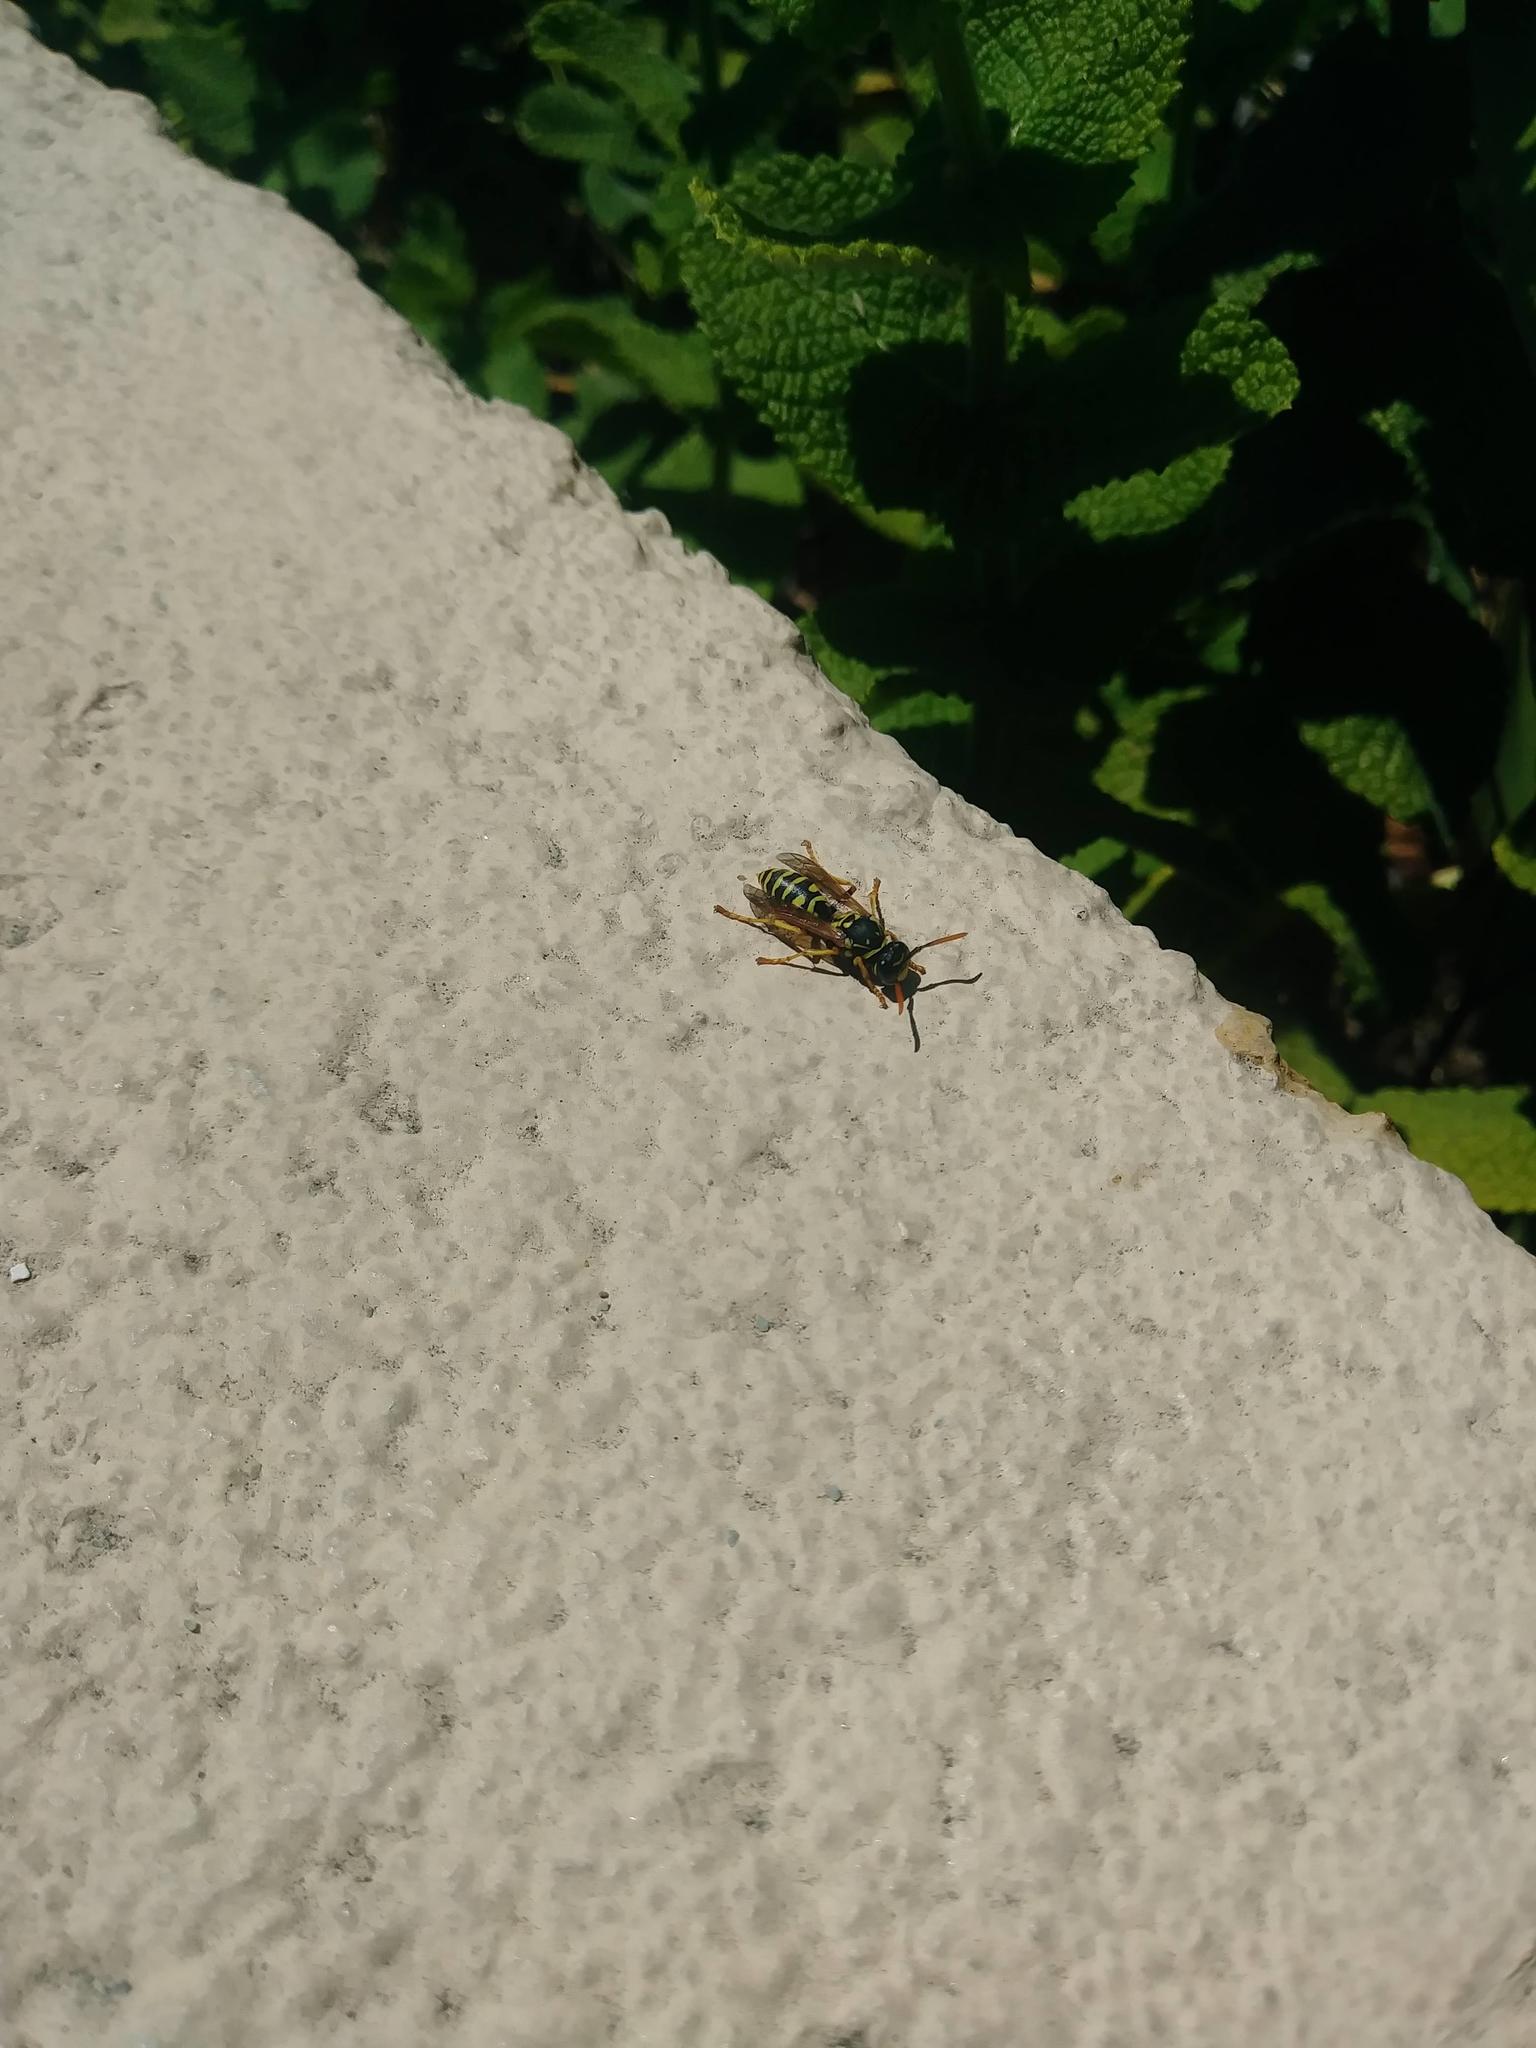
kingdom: Animalia
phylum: Arthropoda
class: Insecta
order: Hymenoptera
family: Eumenidae
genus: Polistes
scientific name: Polistes dominula
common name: Paper wasp
